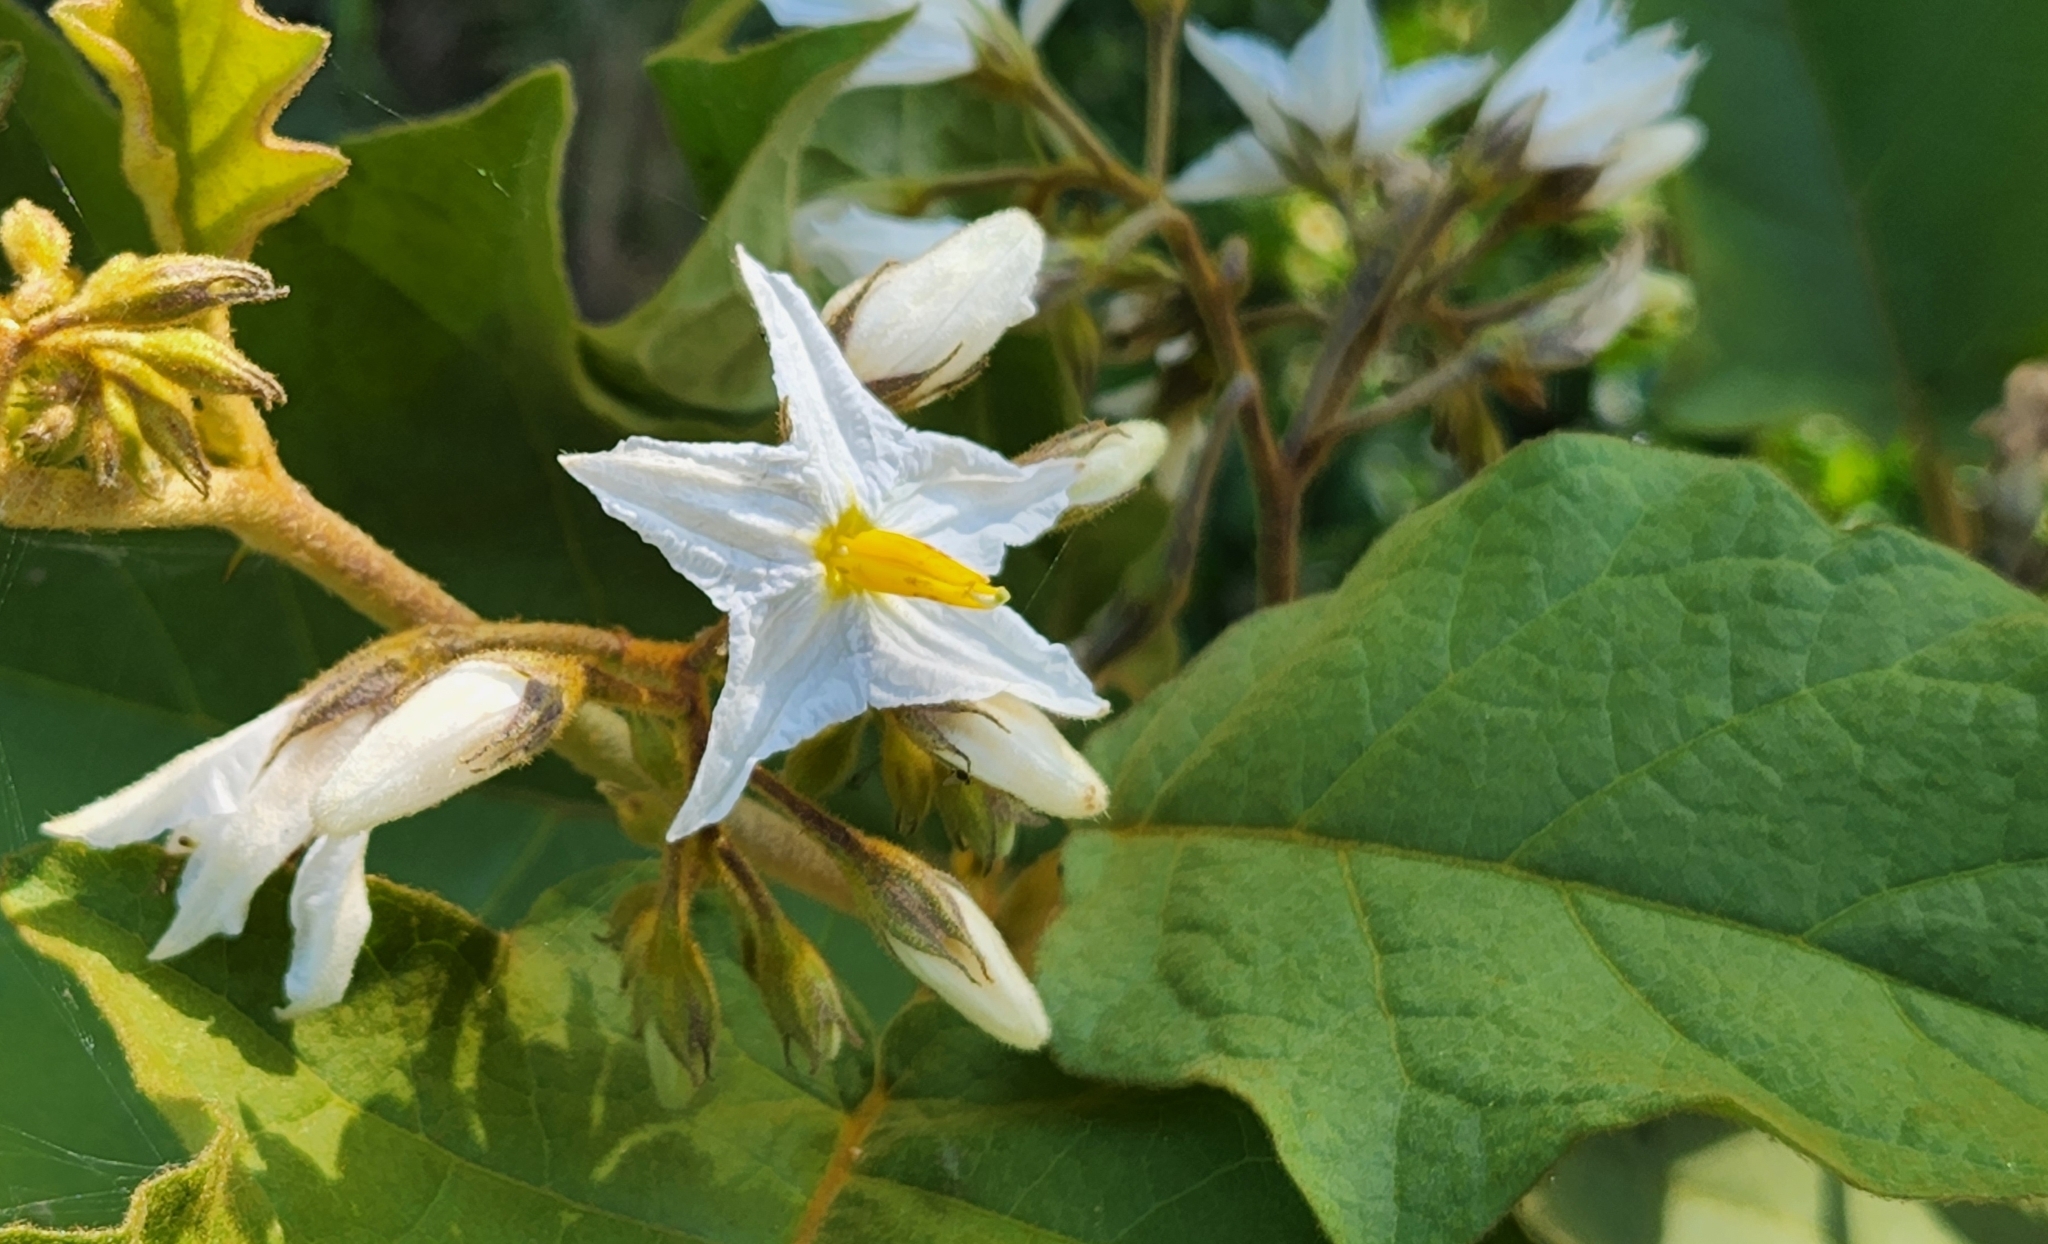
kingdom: Plantae
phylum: Tracheophyta
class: Magnoliopsida
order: Solanales
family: Solanaceae
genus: Solanum
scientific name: Solanum ferrugineum
